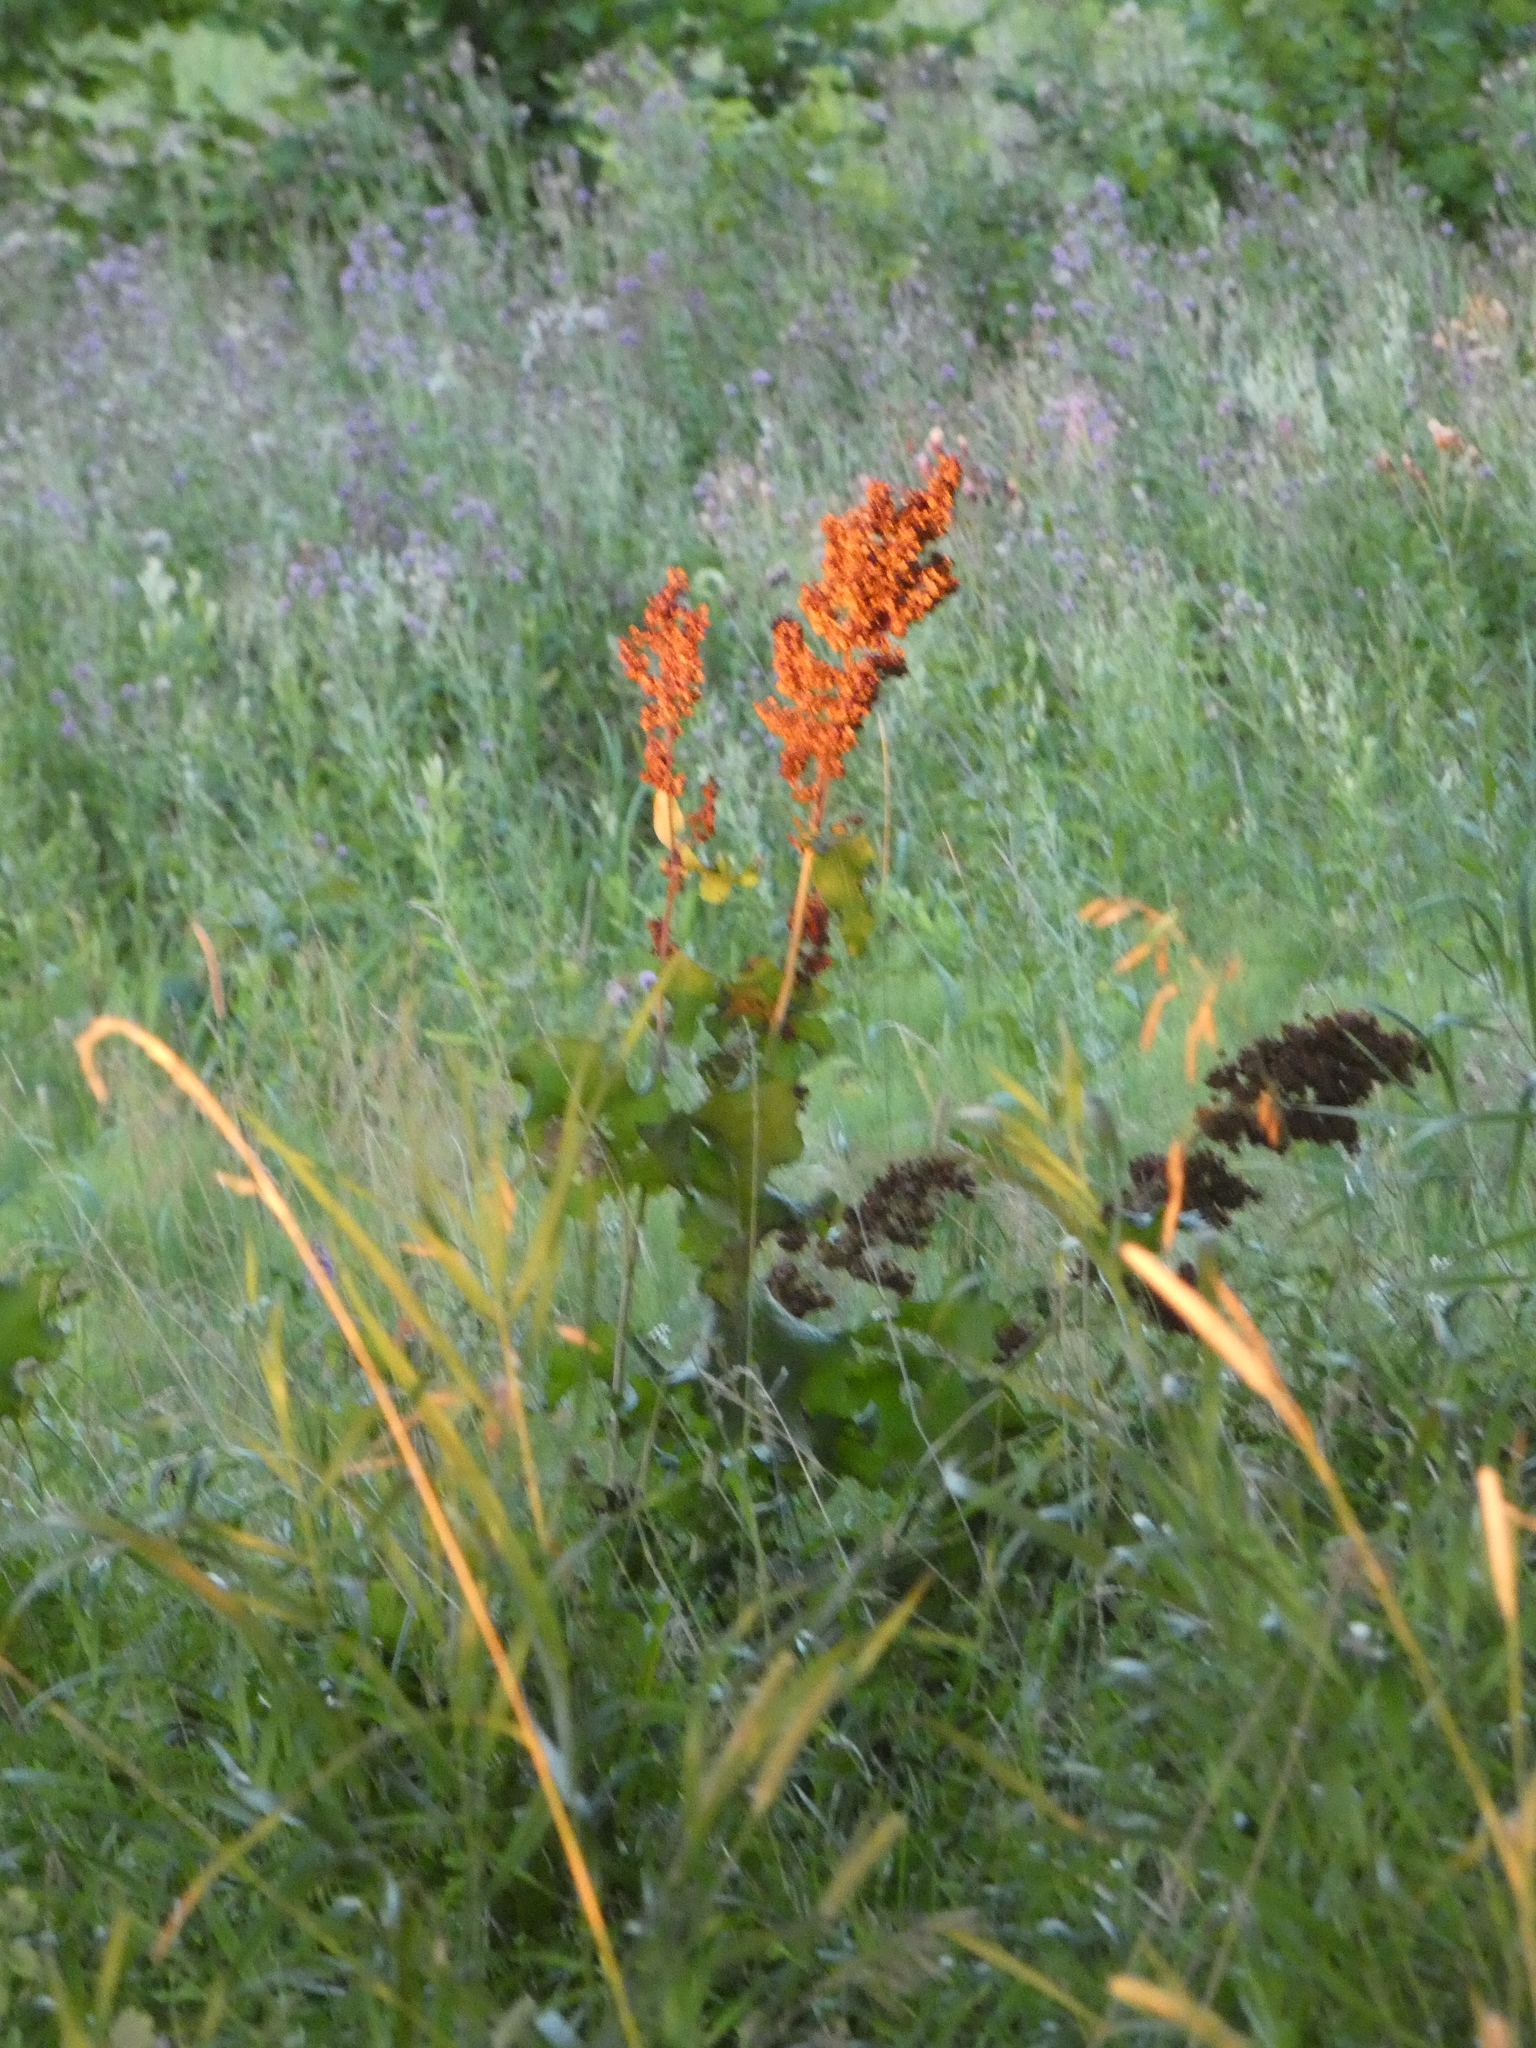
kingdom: Plantae
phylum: Tracheophyta
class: Magnoliopsida
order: Caryophyllales
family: Polygonaceae
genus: Rumex
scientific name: Rumex confertus
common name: Russian dock
